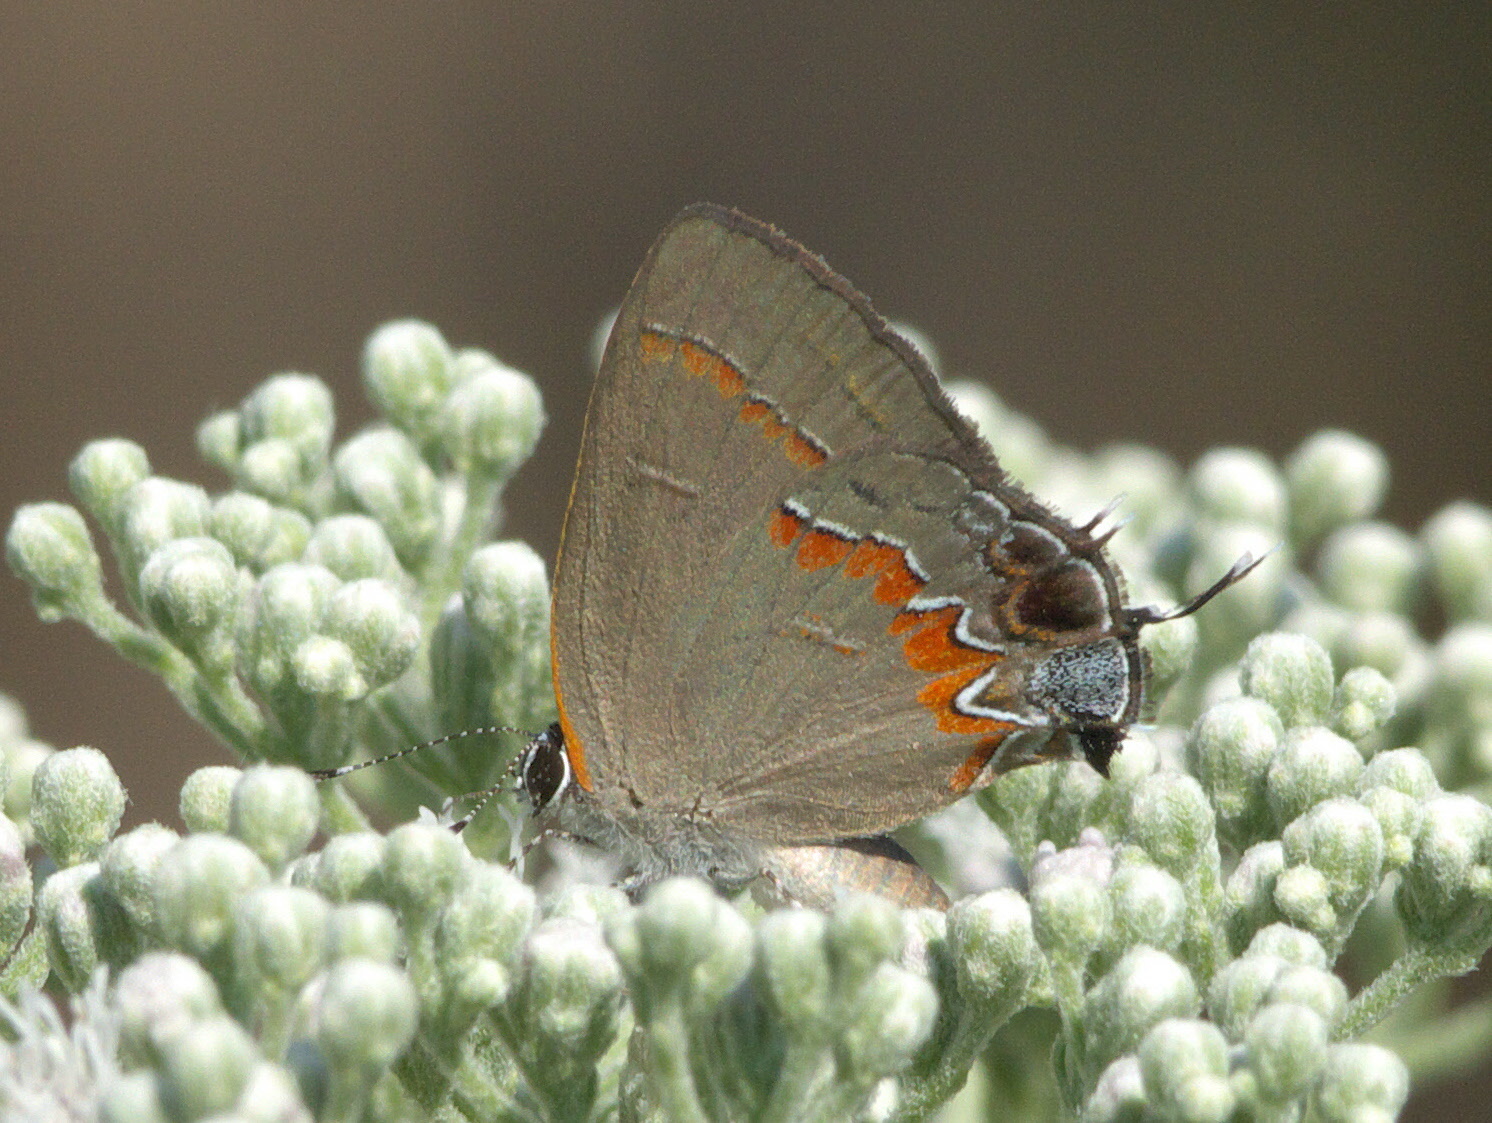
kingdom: Animalia
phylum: Arthropoda
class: Insecta
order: Lepidoptera
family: Lycaenidae
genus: Calycopis
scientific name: Calycopis cecrops
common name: Red-banded hairstreak
